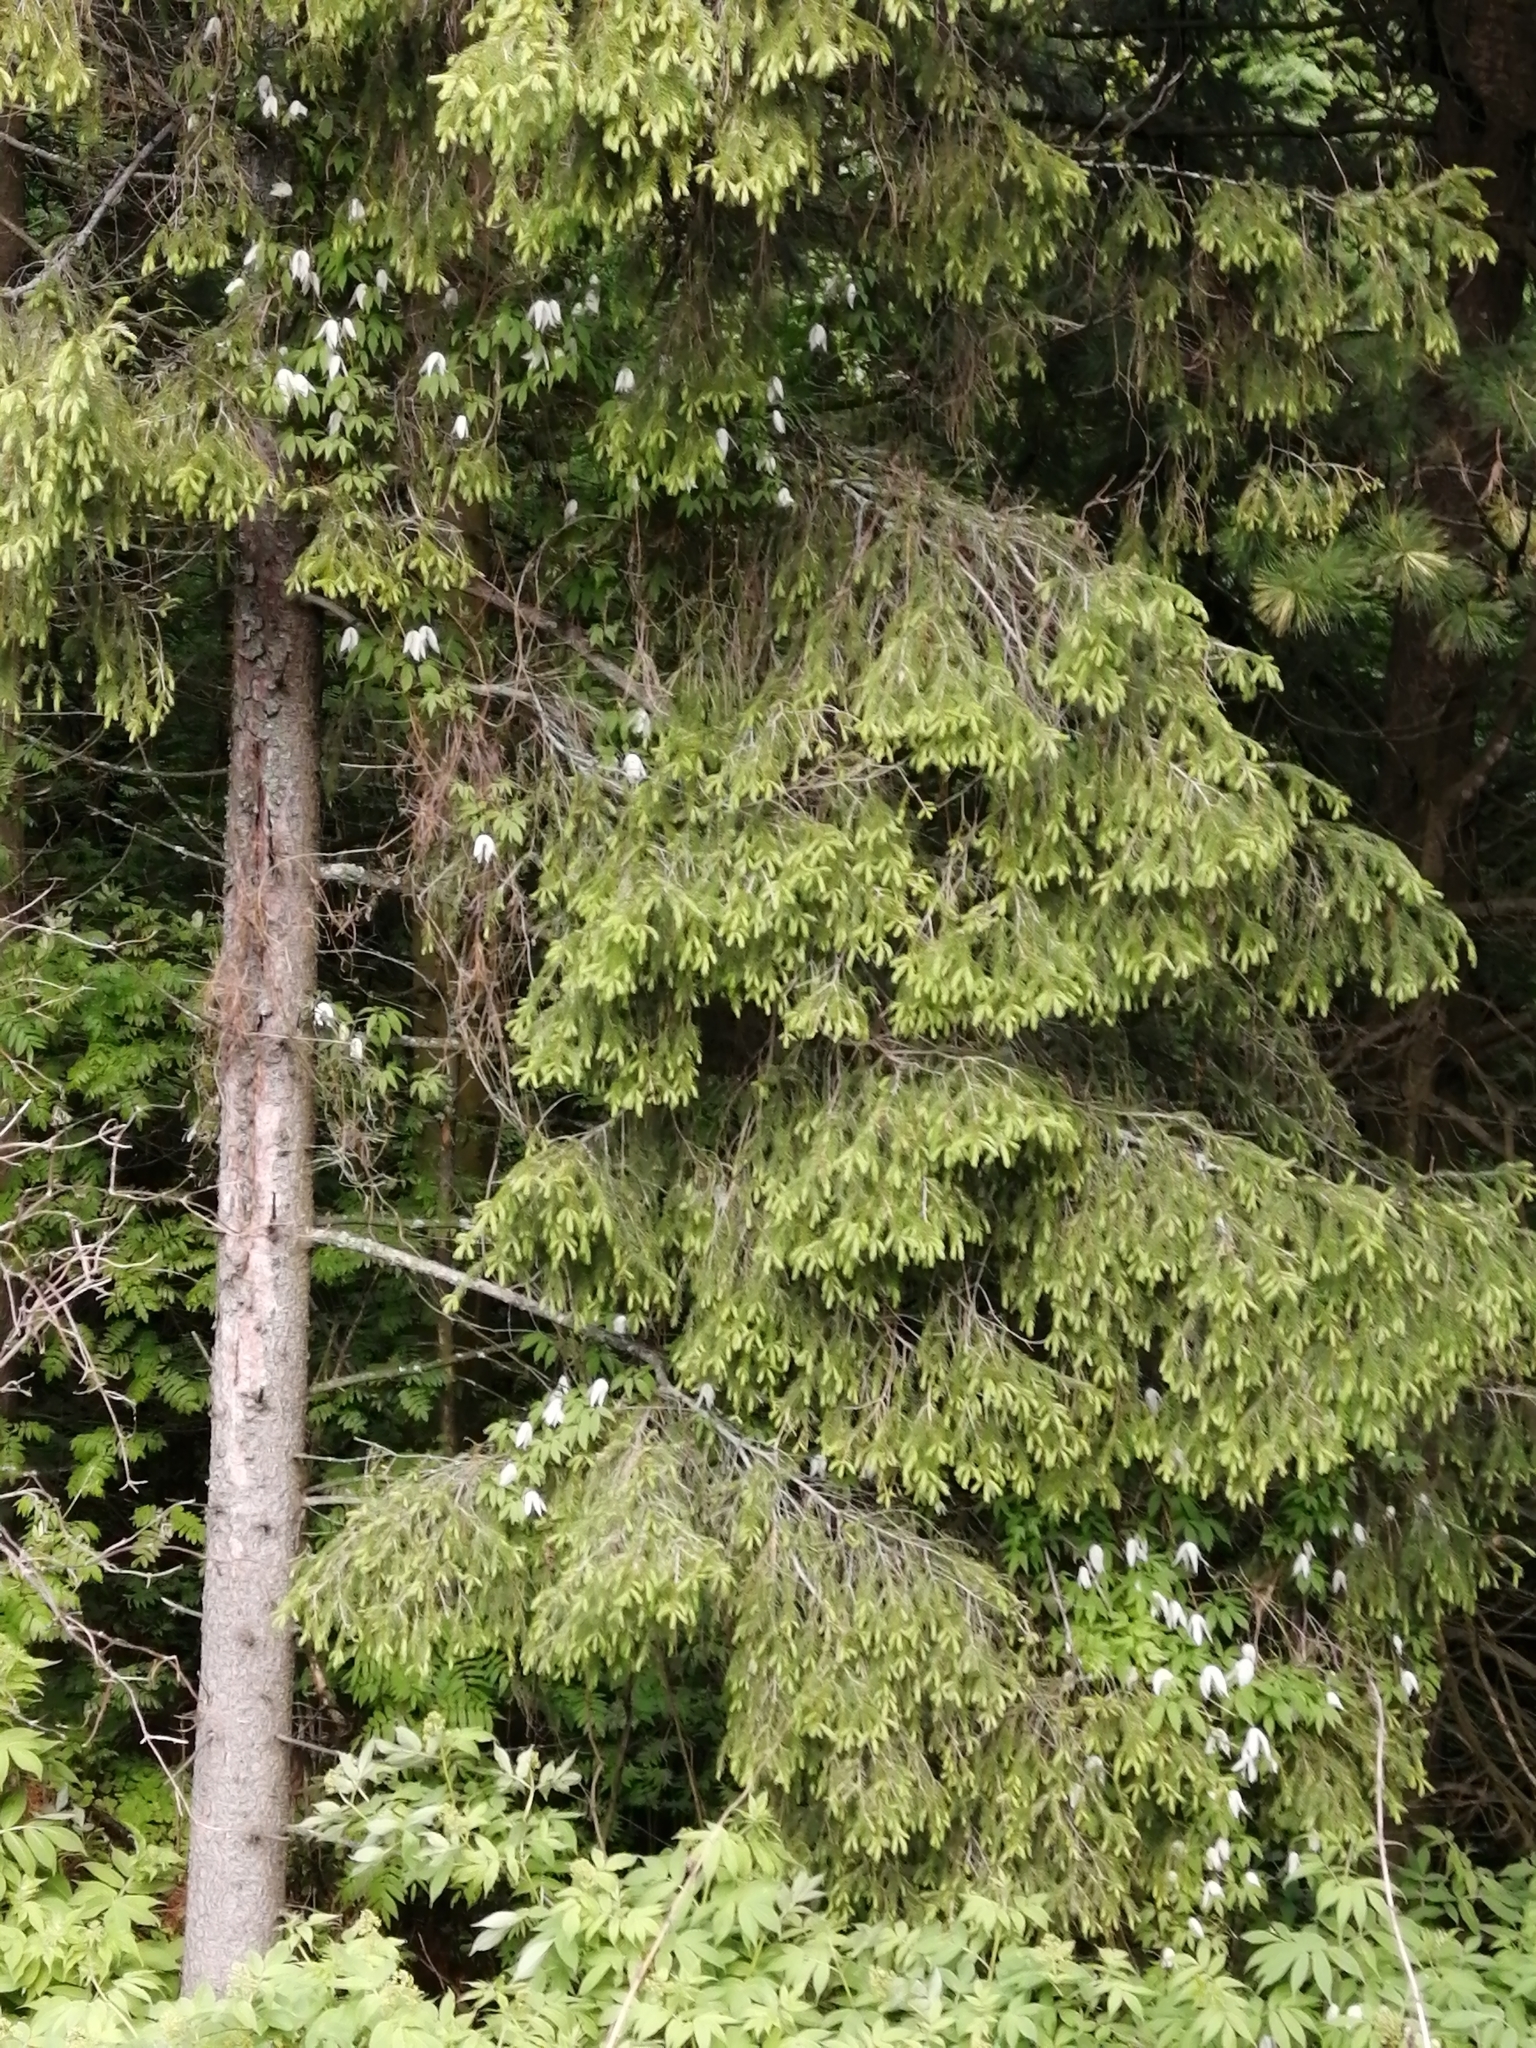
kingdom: Plantae
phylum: Tracheophyta
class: Pinopsida
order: Pinales
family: Pinaceae
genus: Picea
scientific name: Picea obovata
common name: Siberian spruce
